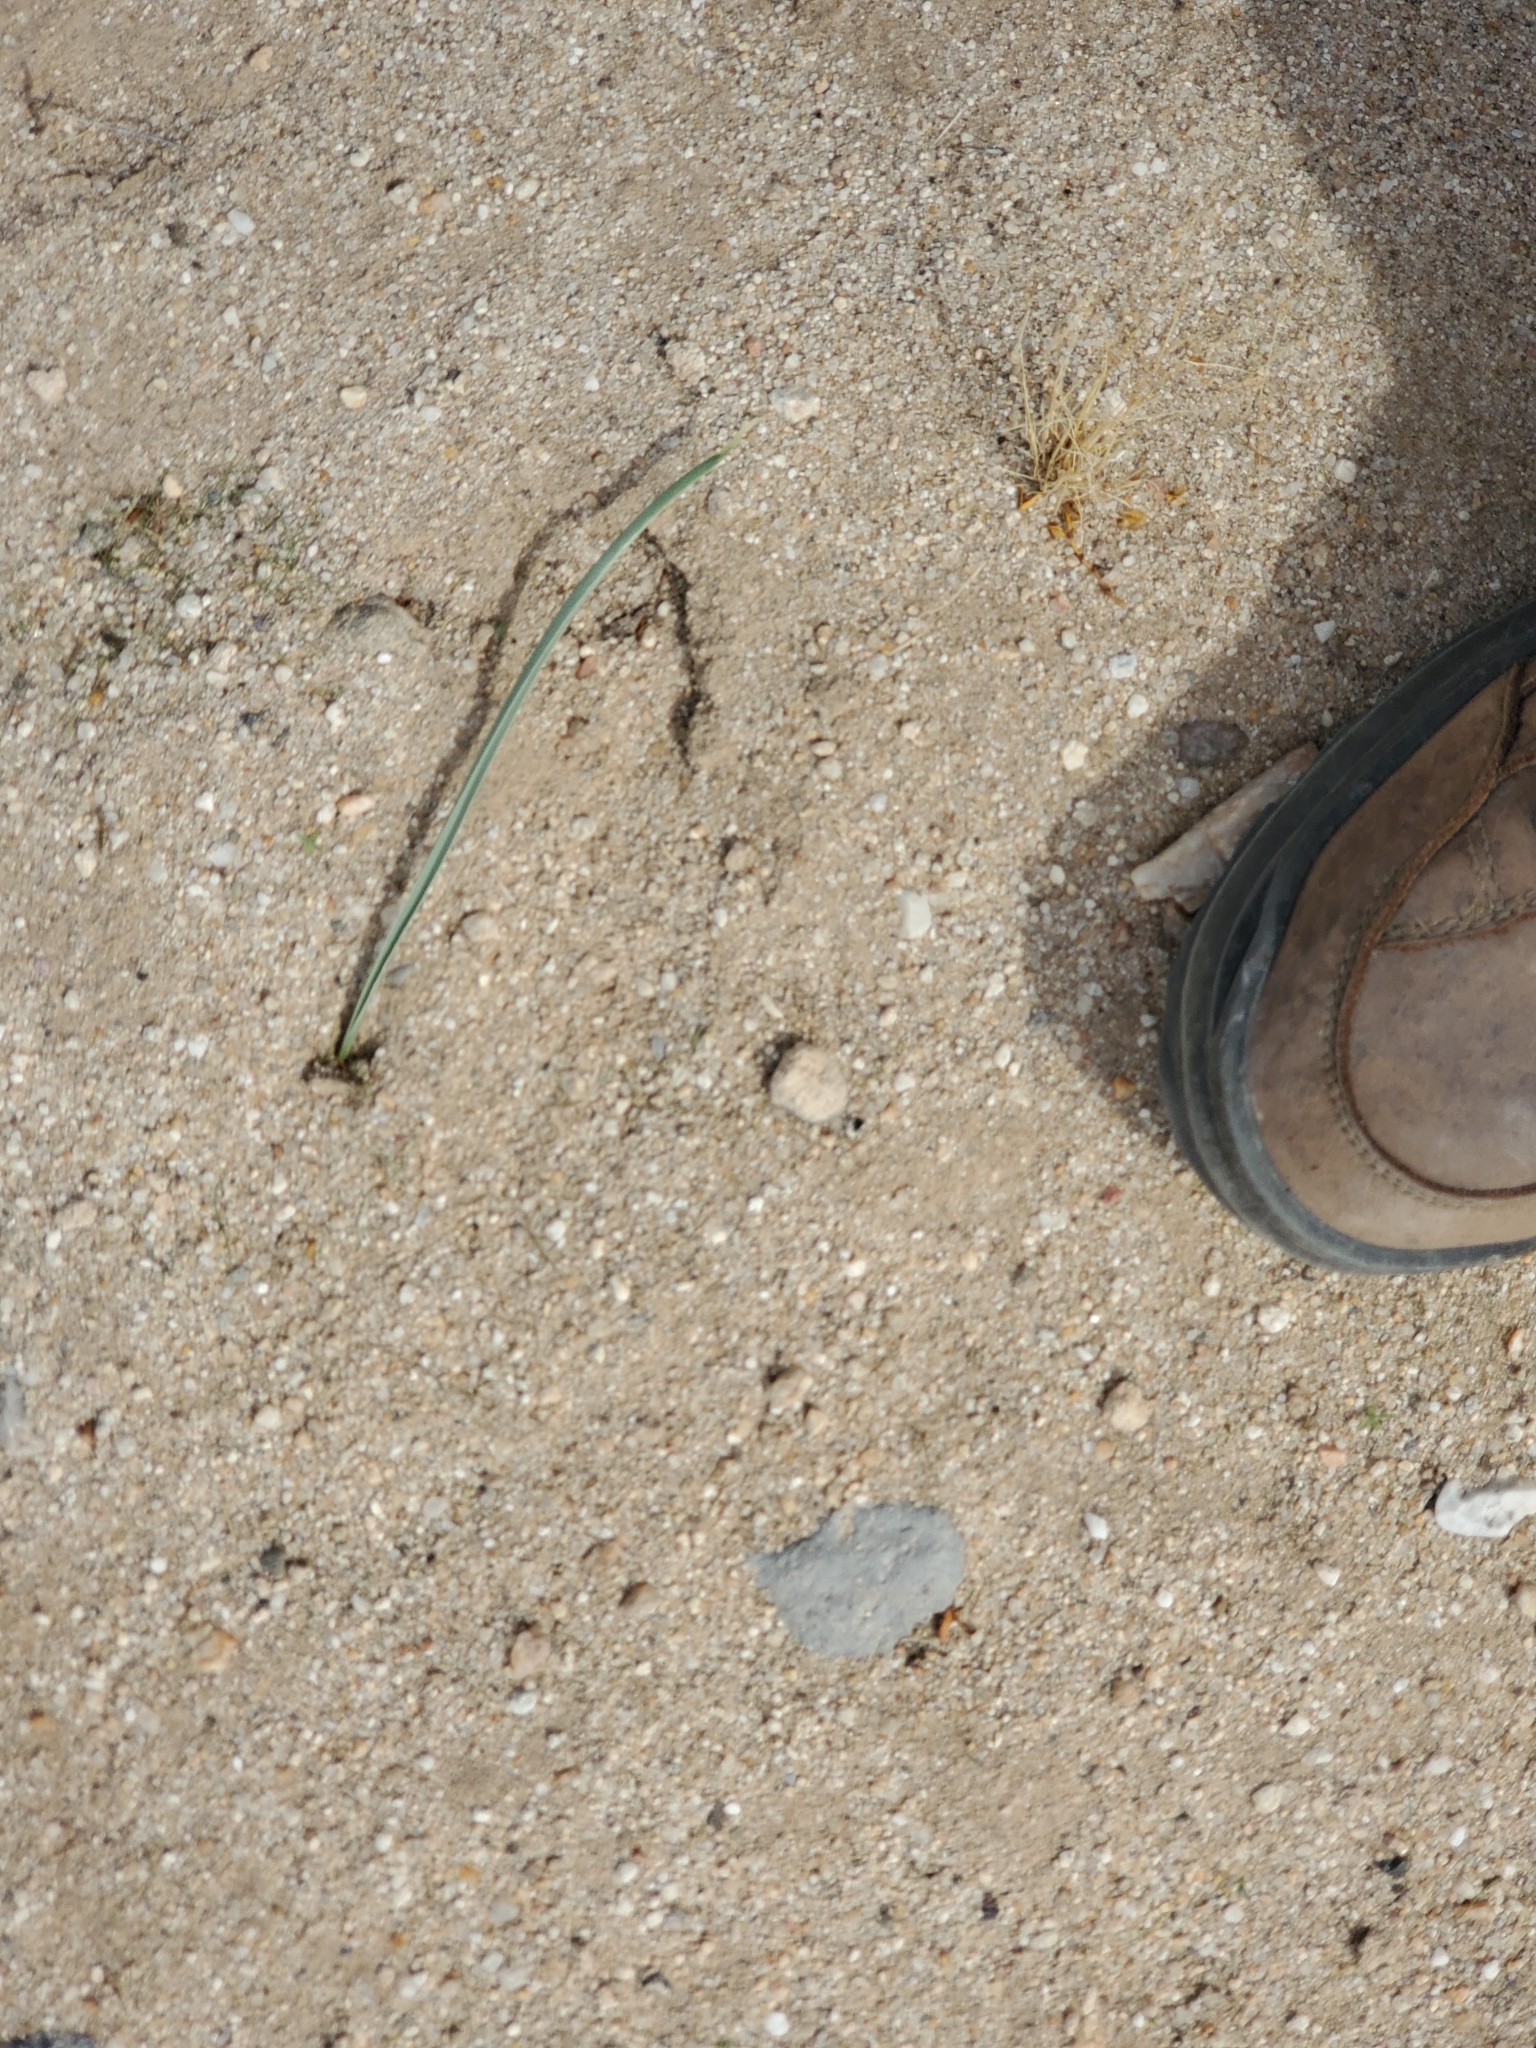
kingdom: Plantae
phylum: Tracheophyta
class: Liliopsida
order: Asparagales
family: Asparagaceae
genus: Hesperocallis
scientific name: Hesperocallis undulata
